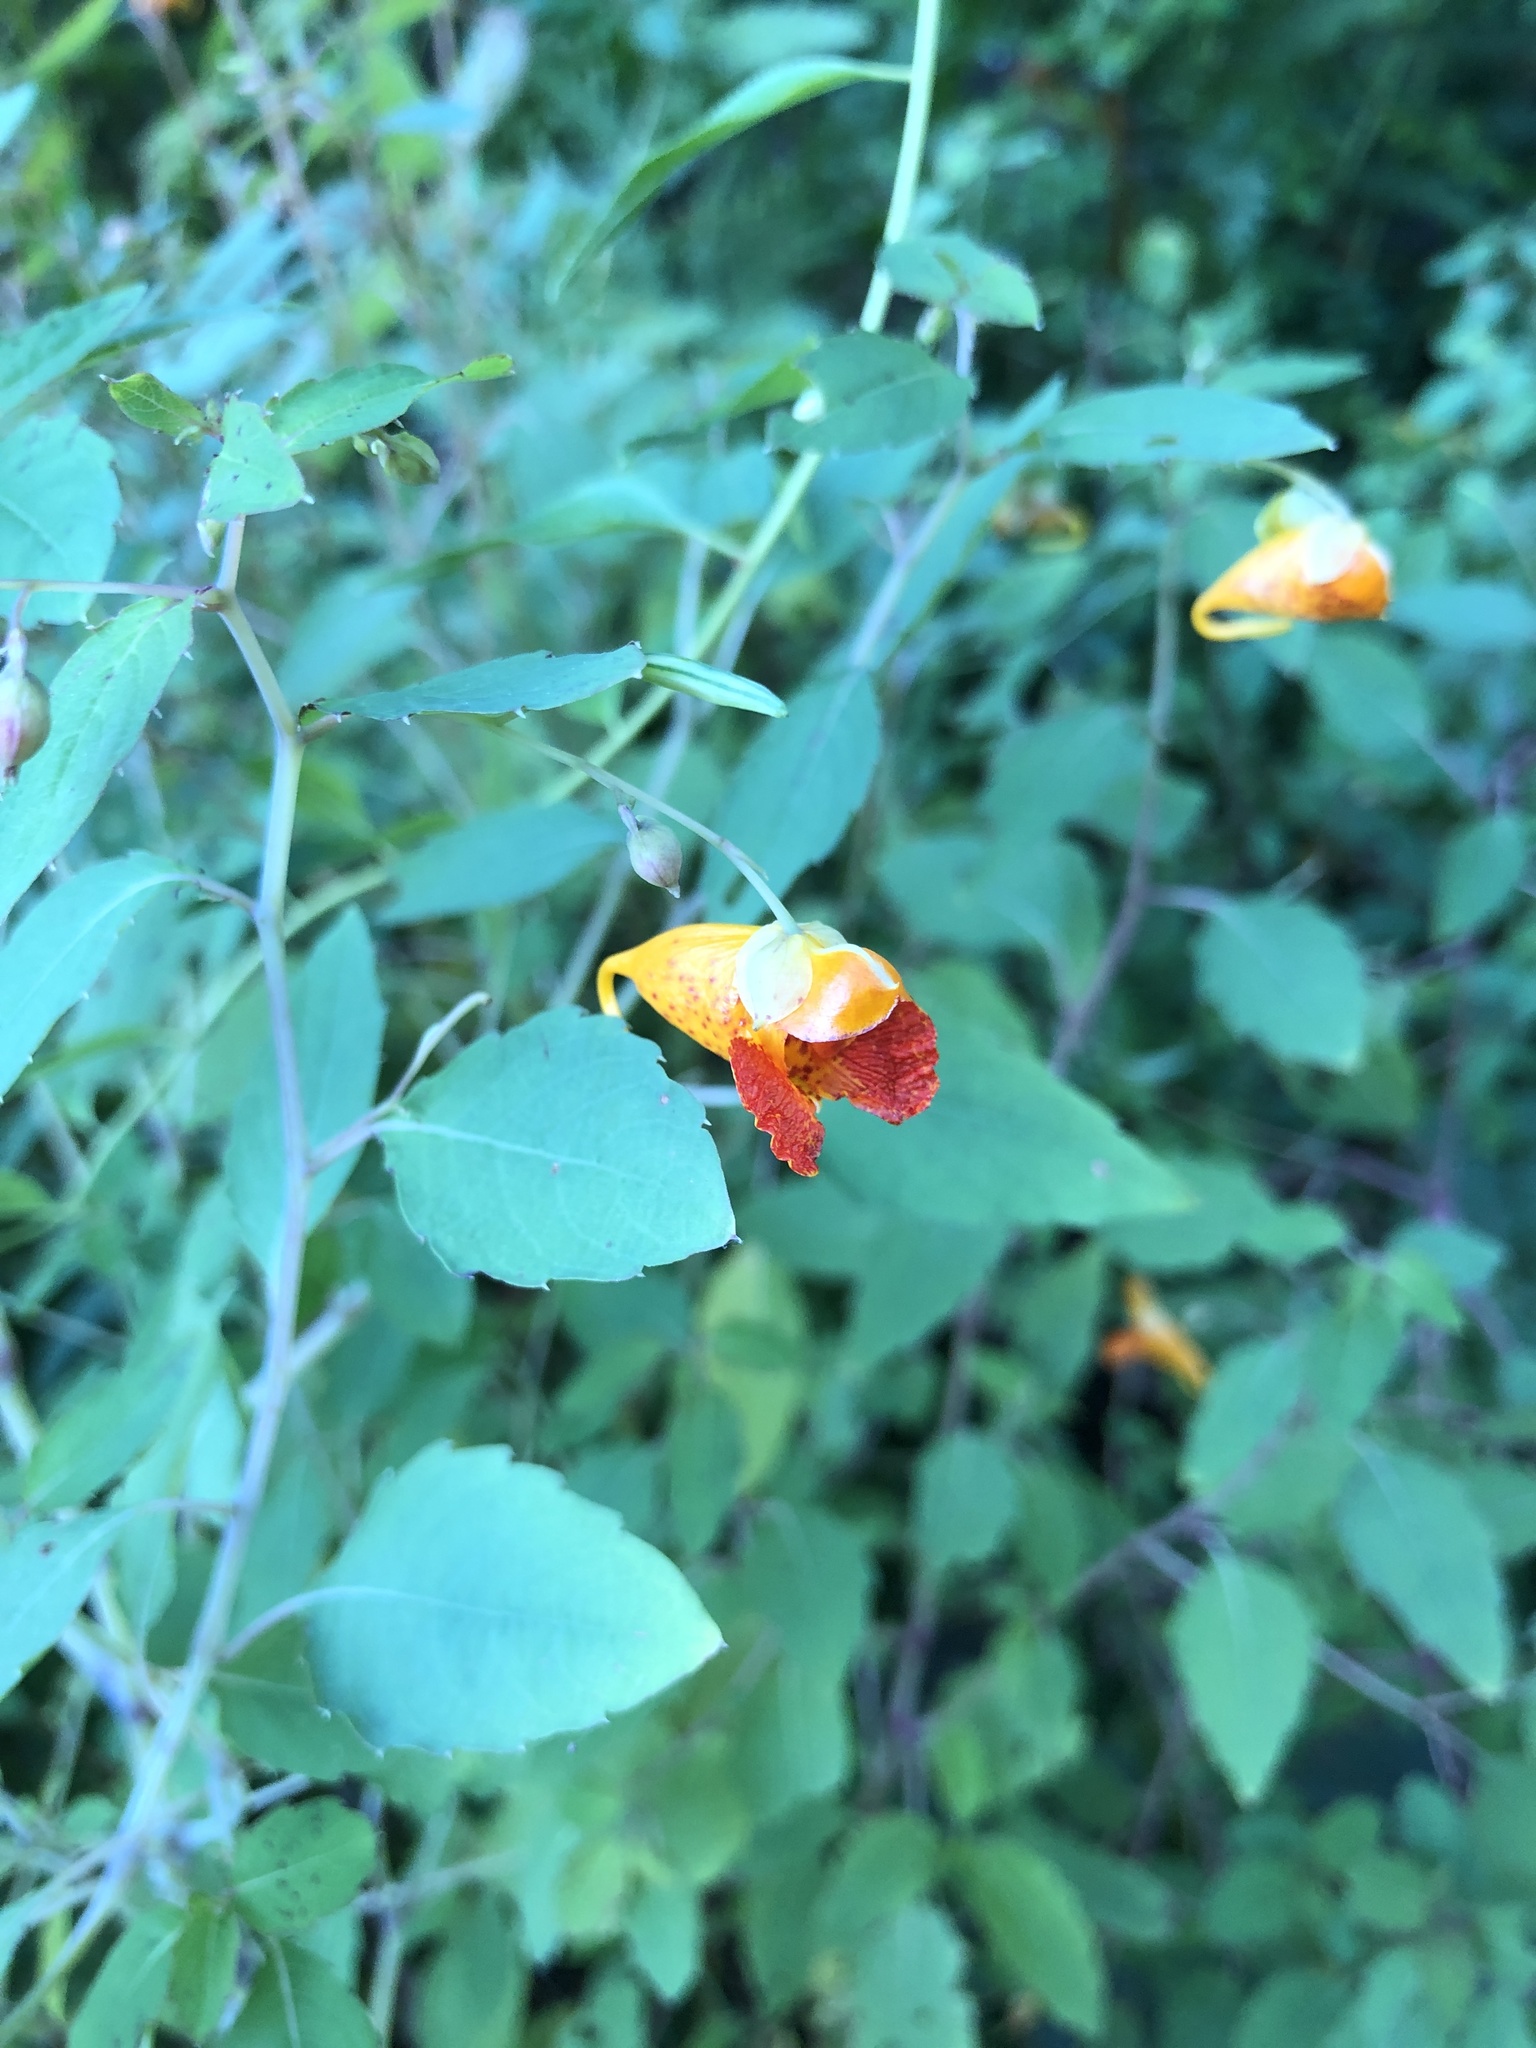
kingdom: Plantae
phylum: Tracheophyta
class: Magnoliopsida
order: Ericales
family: Balsaminaceae
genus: Impatiens
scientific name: Impatiens capensis
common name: Orange balsam
